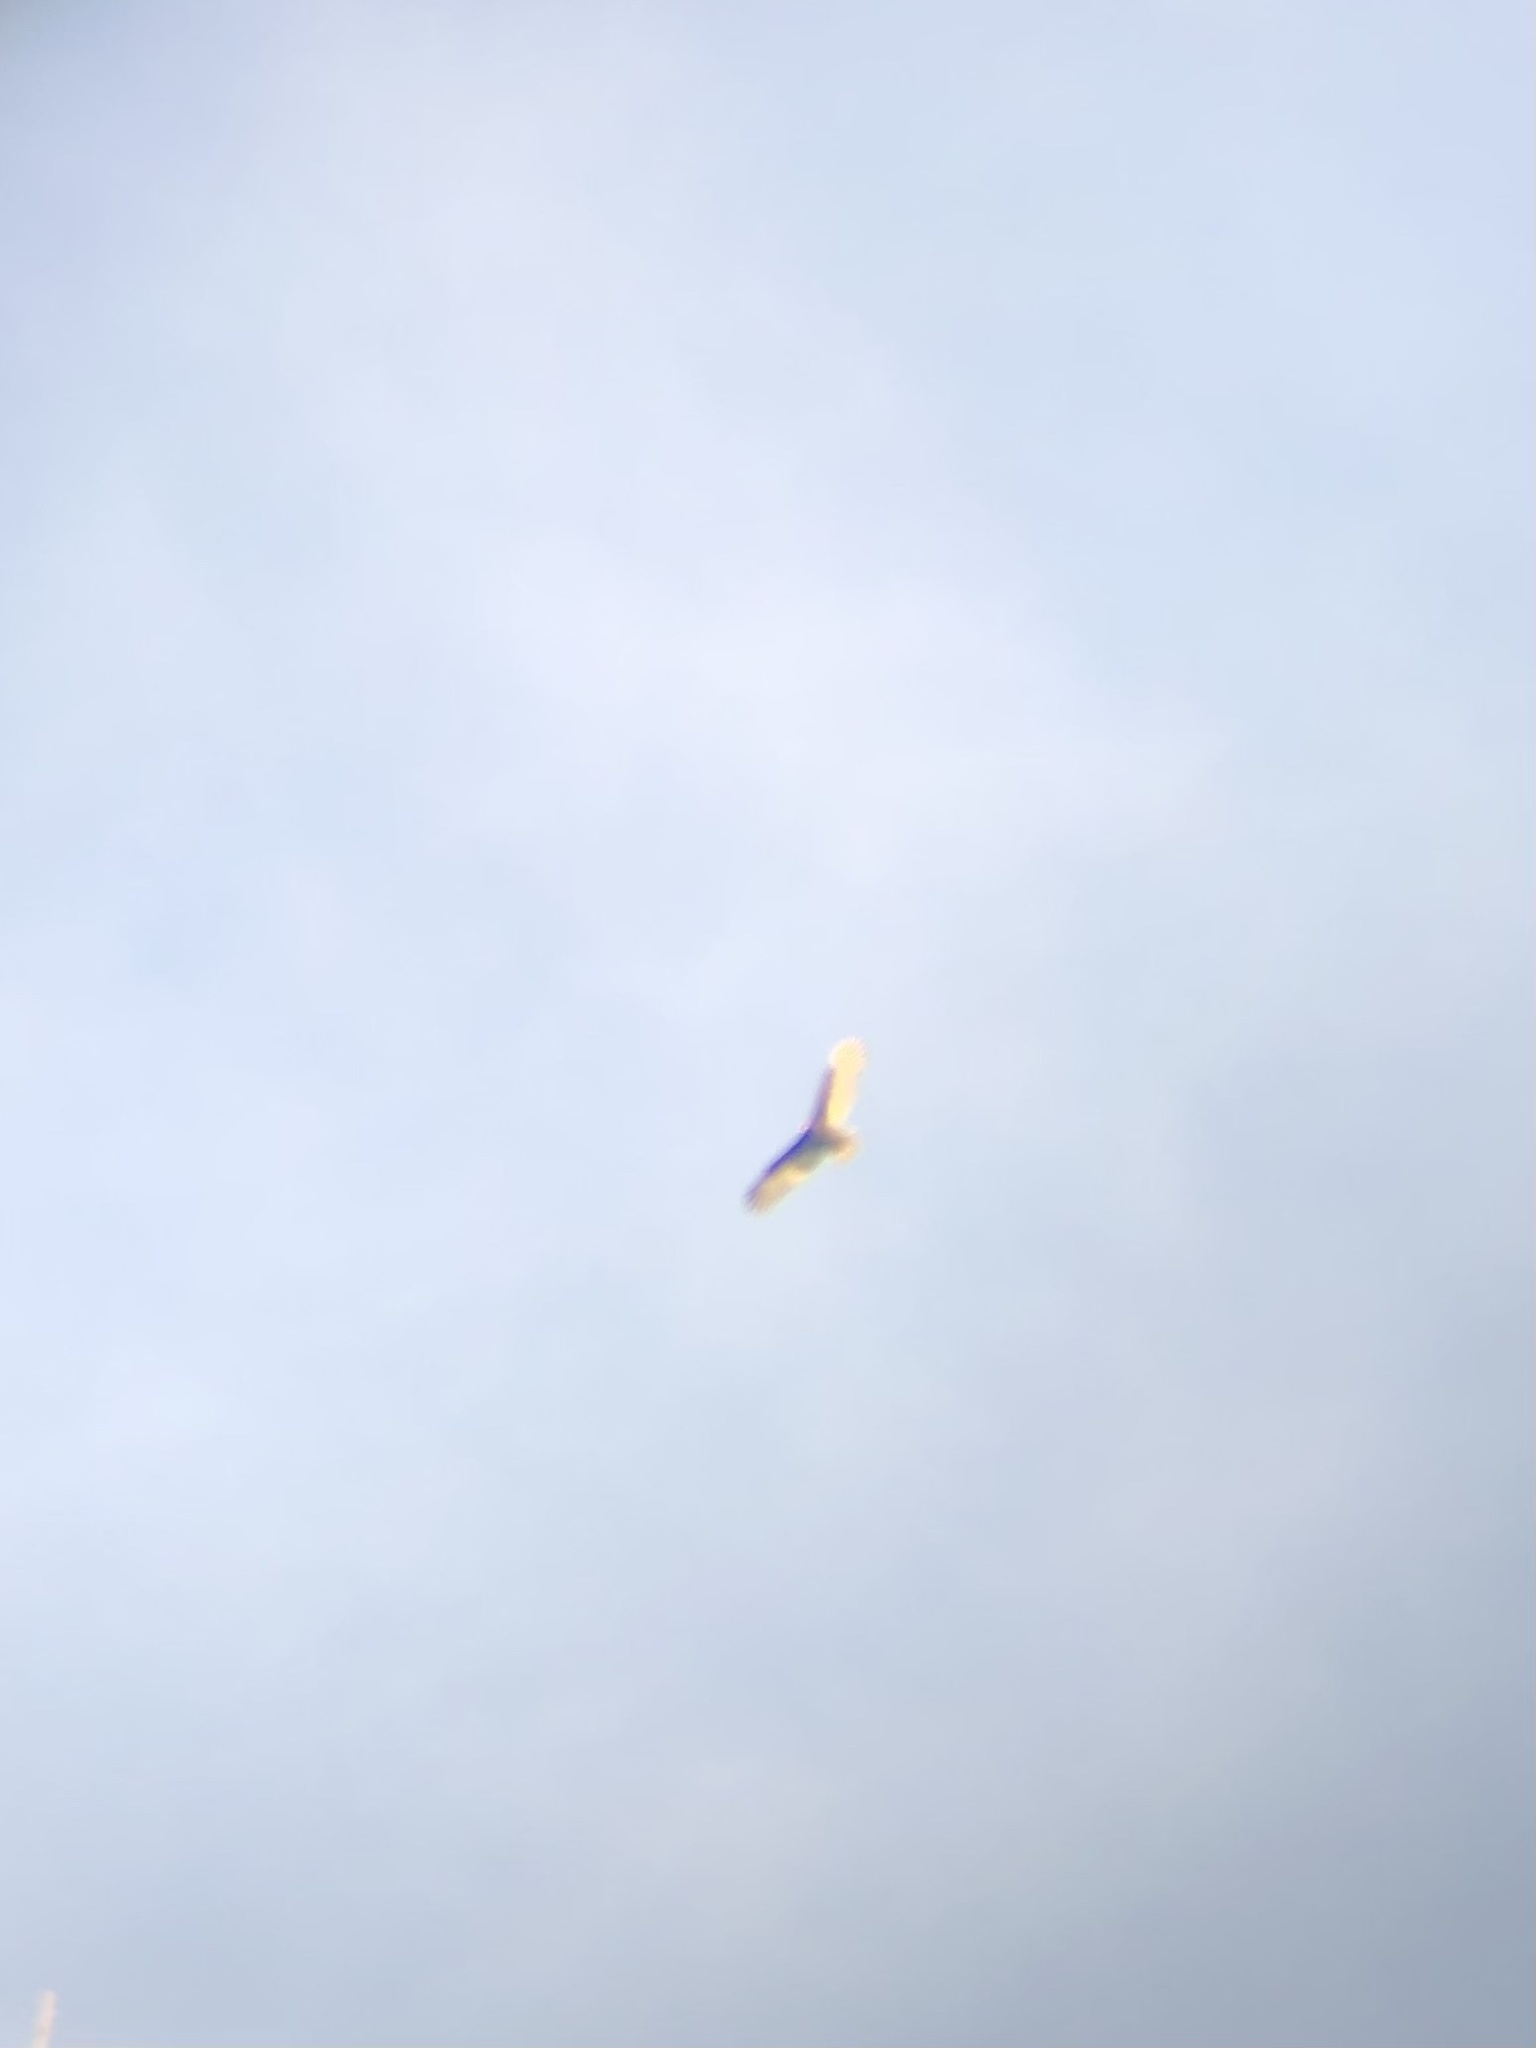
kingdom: Animalia
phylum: Chordata
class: Aves
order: Accipitriformes
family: Cathartidae
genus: Cathartes
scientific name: Cathartes aura
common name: Turkey vulture
